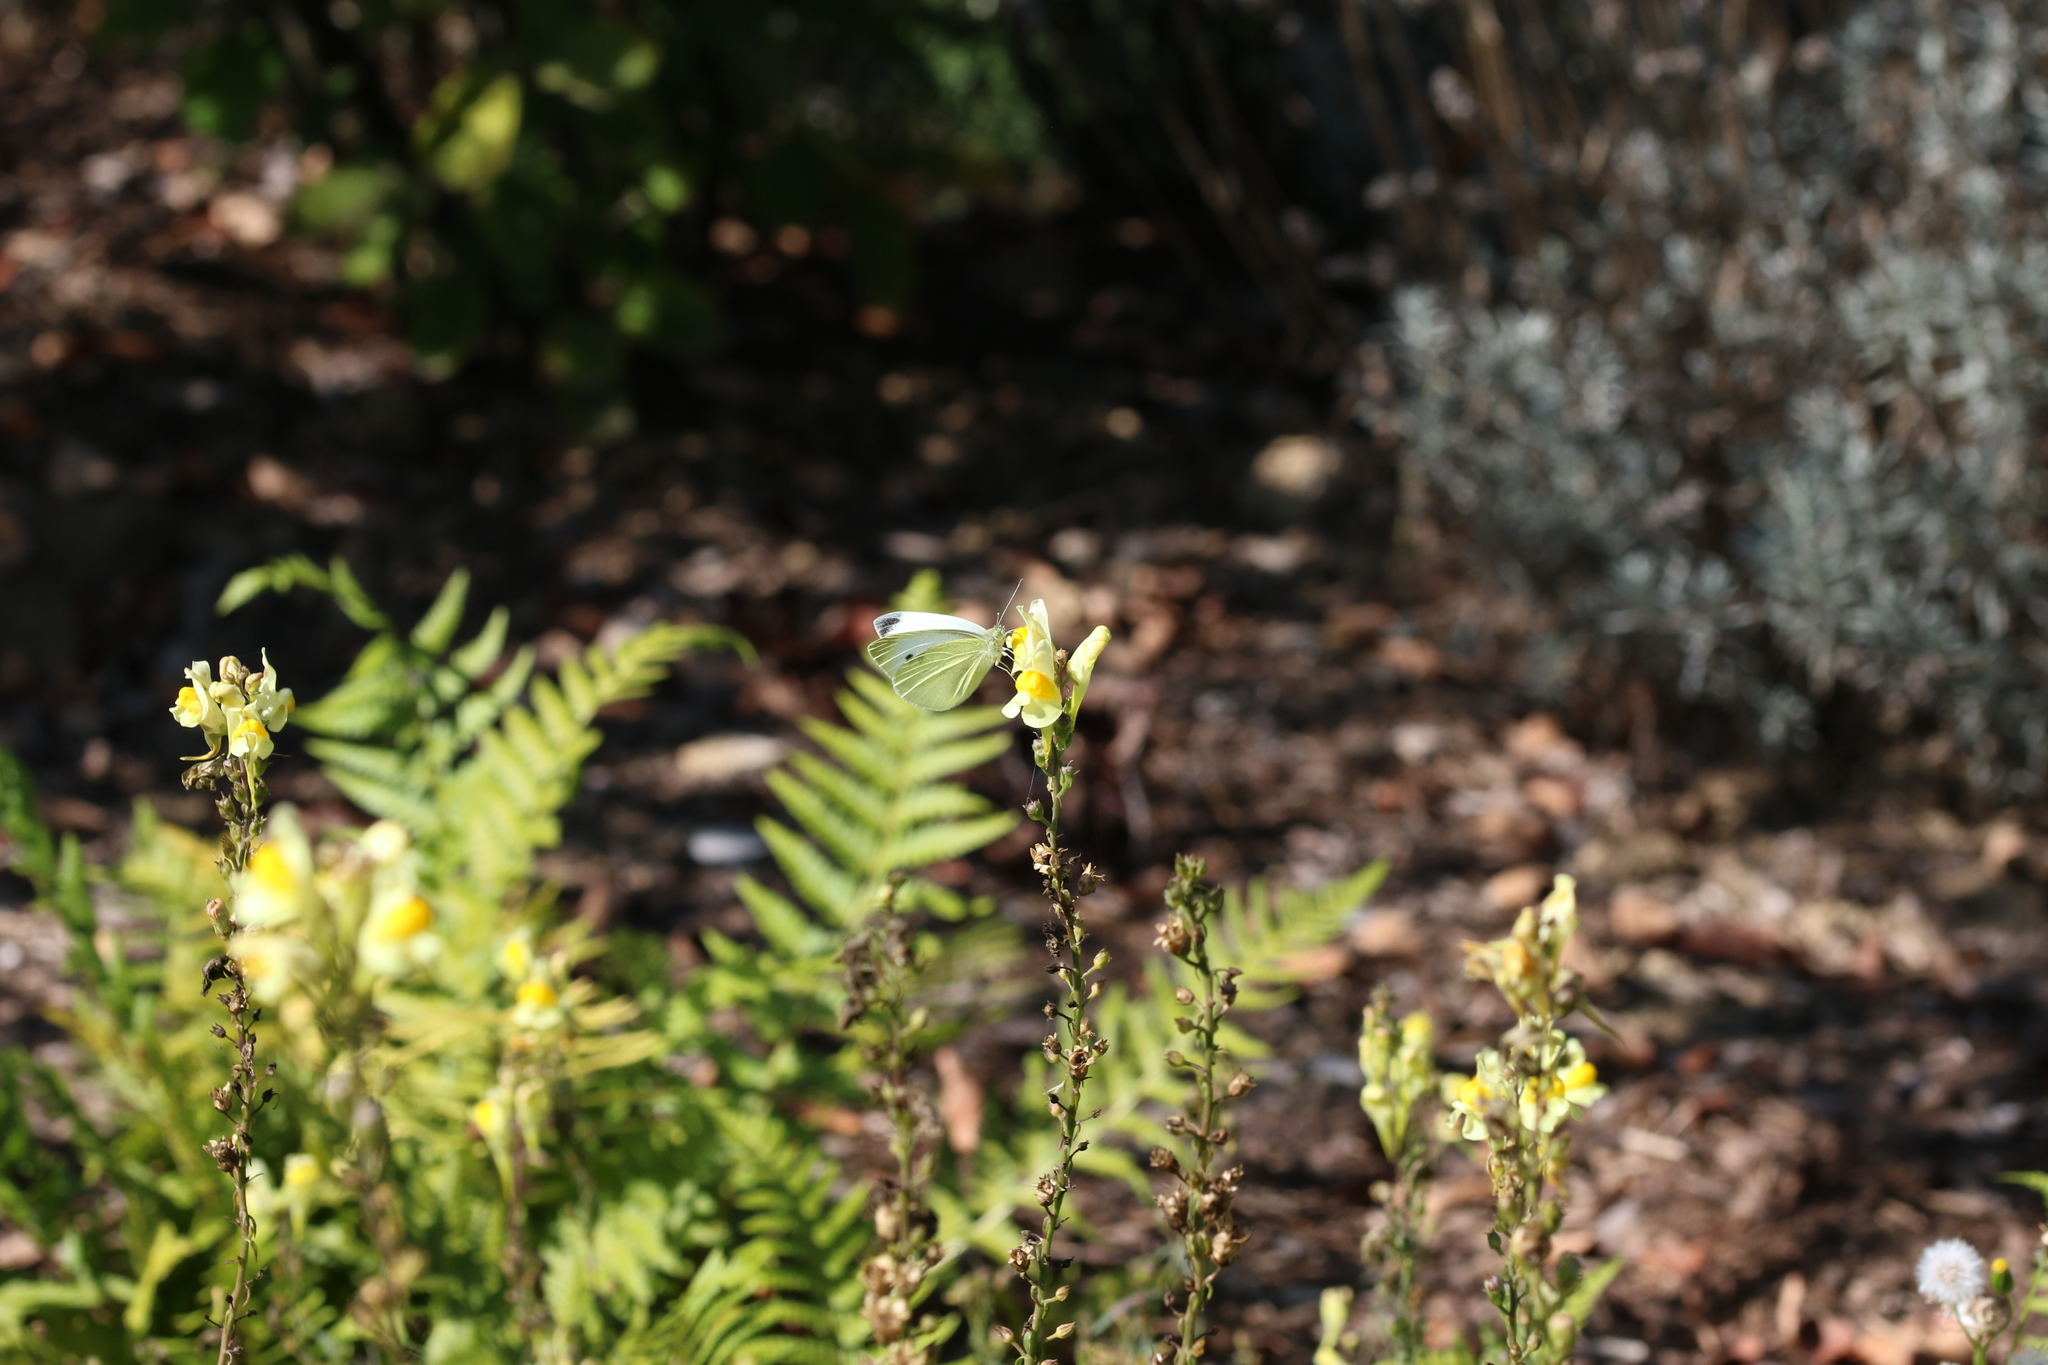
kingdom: Animalia
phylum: Arthropoda
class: Insecta
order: Lepidoptera
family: Pieridae
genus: Pieris
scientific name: Pieris rapae
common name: Small white
